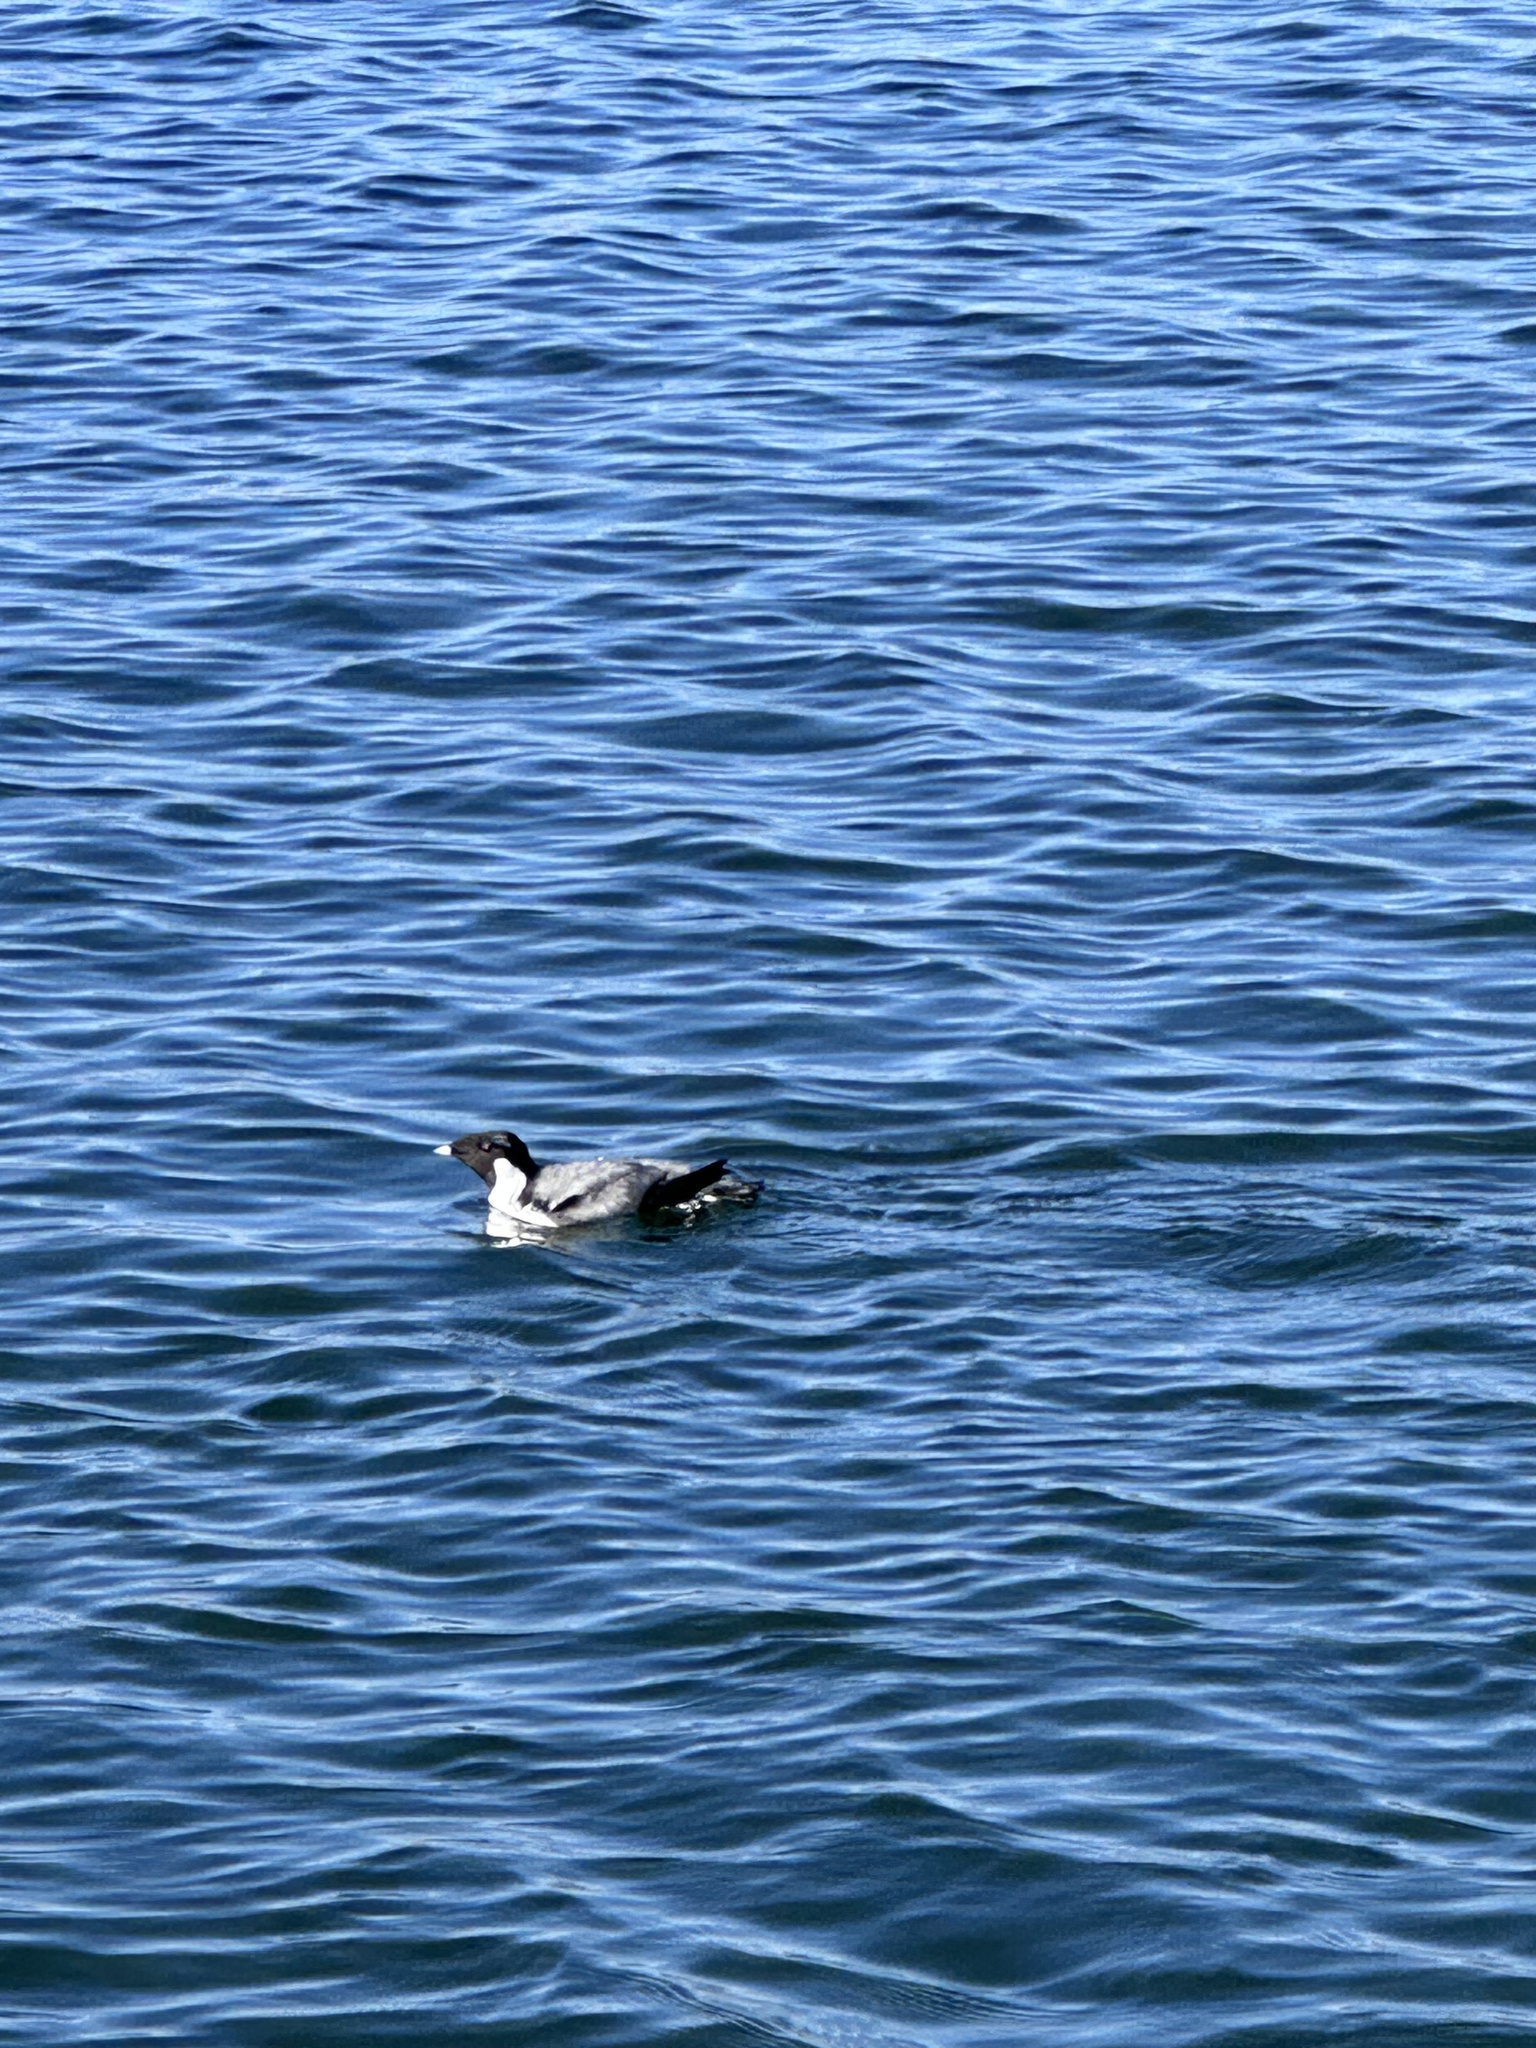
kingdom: Animalia
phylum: Chordata
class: Aves
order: Charadriiformes
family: Alcidae
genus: Synthliboramphus
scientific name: Synthliboramphus antiquus
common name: Ancient murrelet
